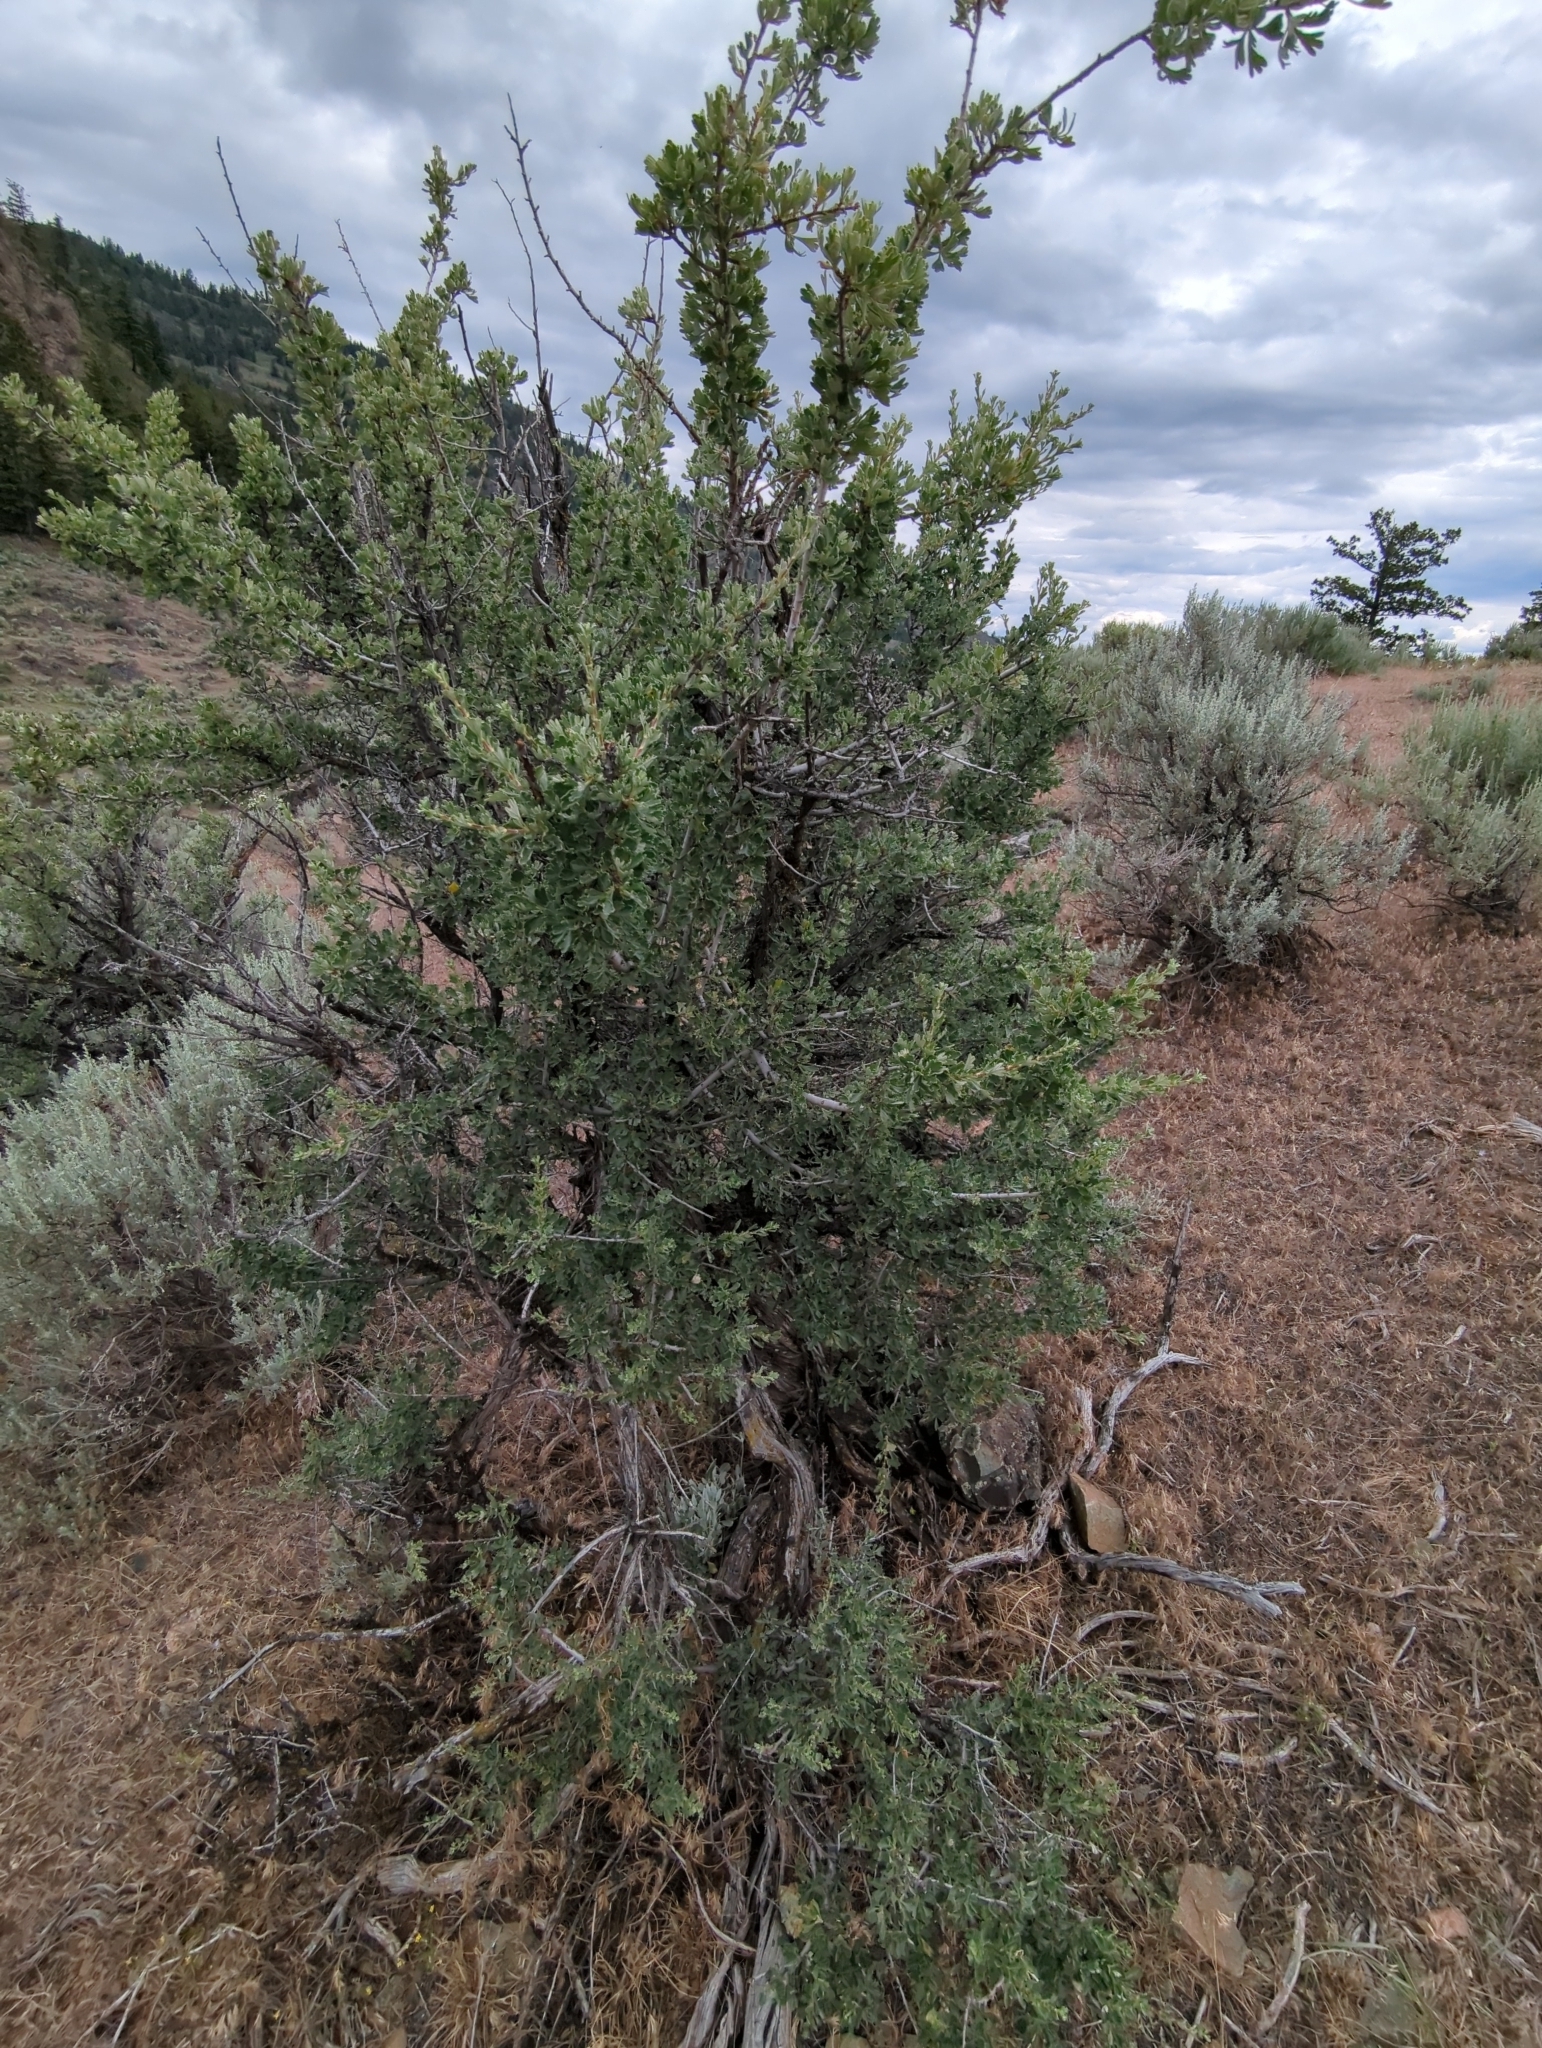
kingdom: Plantae
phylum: Tracheophyta
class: Magnoliopsida
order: Rosales
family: Rosaceae
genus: Purshia
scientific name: Purshia tridentata
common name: Antelope bitterbrush
